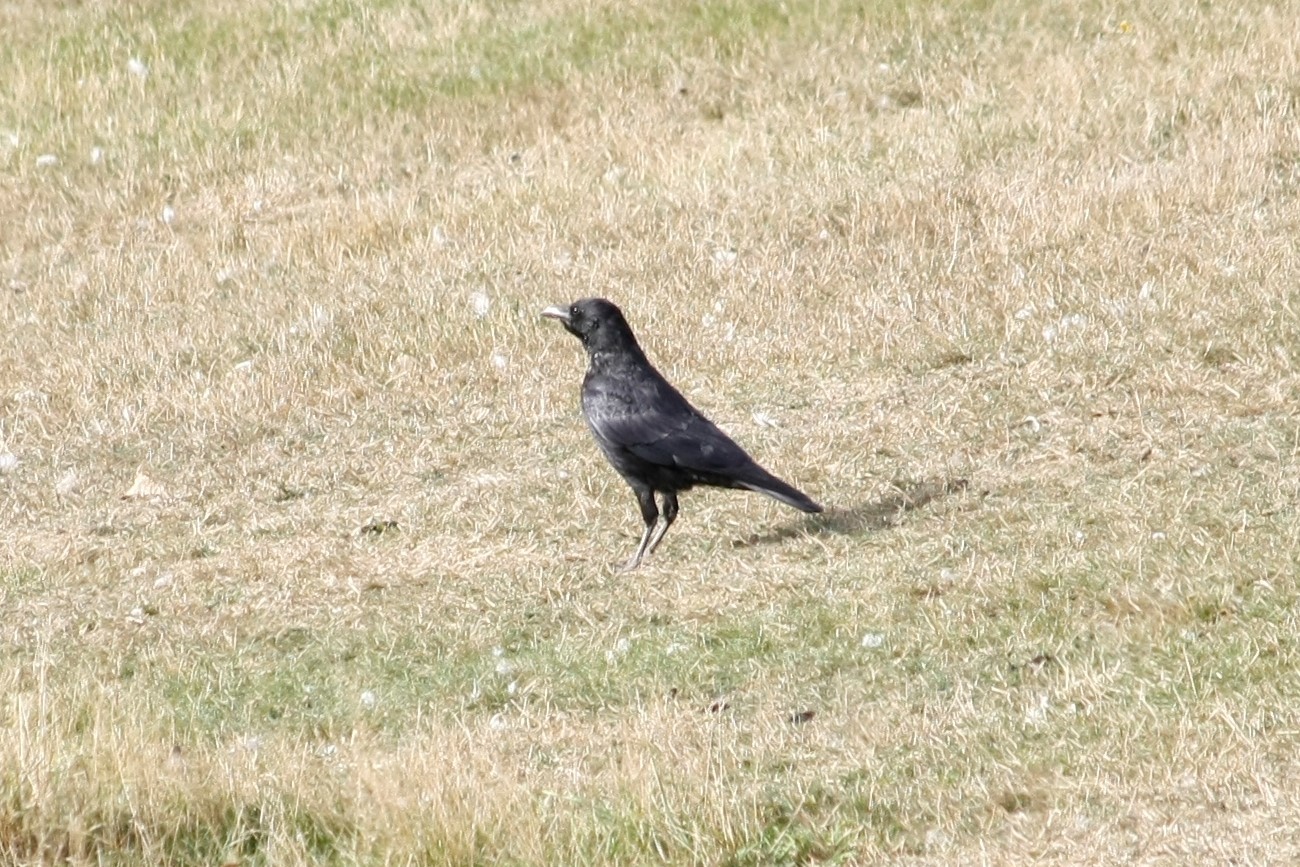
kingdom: Animalia
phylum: Chordata
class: Aves
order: Passeriformes
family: Corvidae
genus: Corvus
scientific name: Corvus corone
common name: Carrion crow
